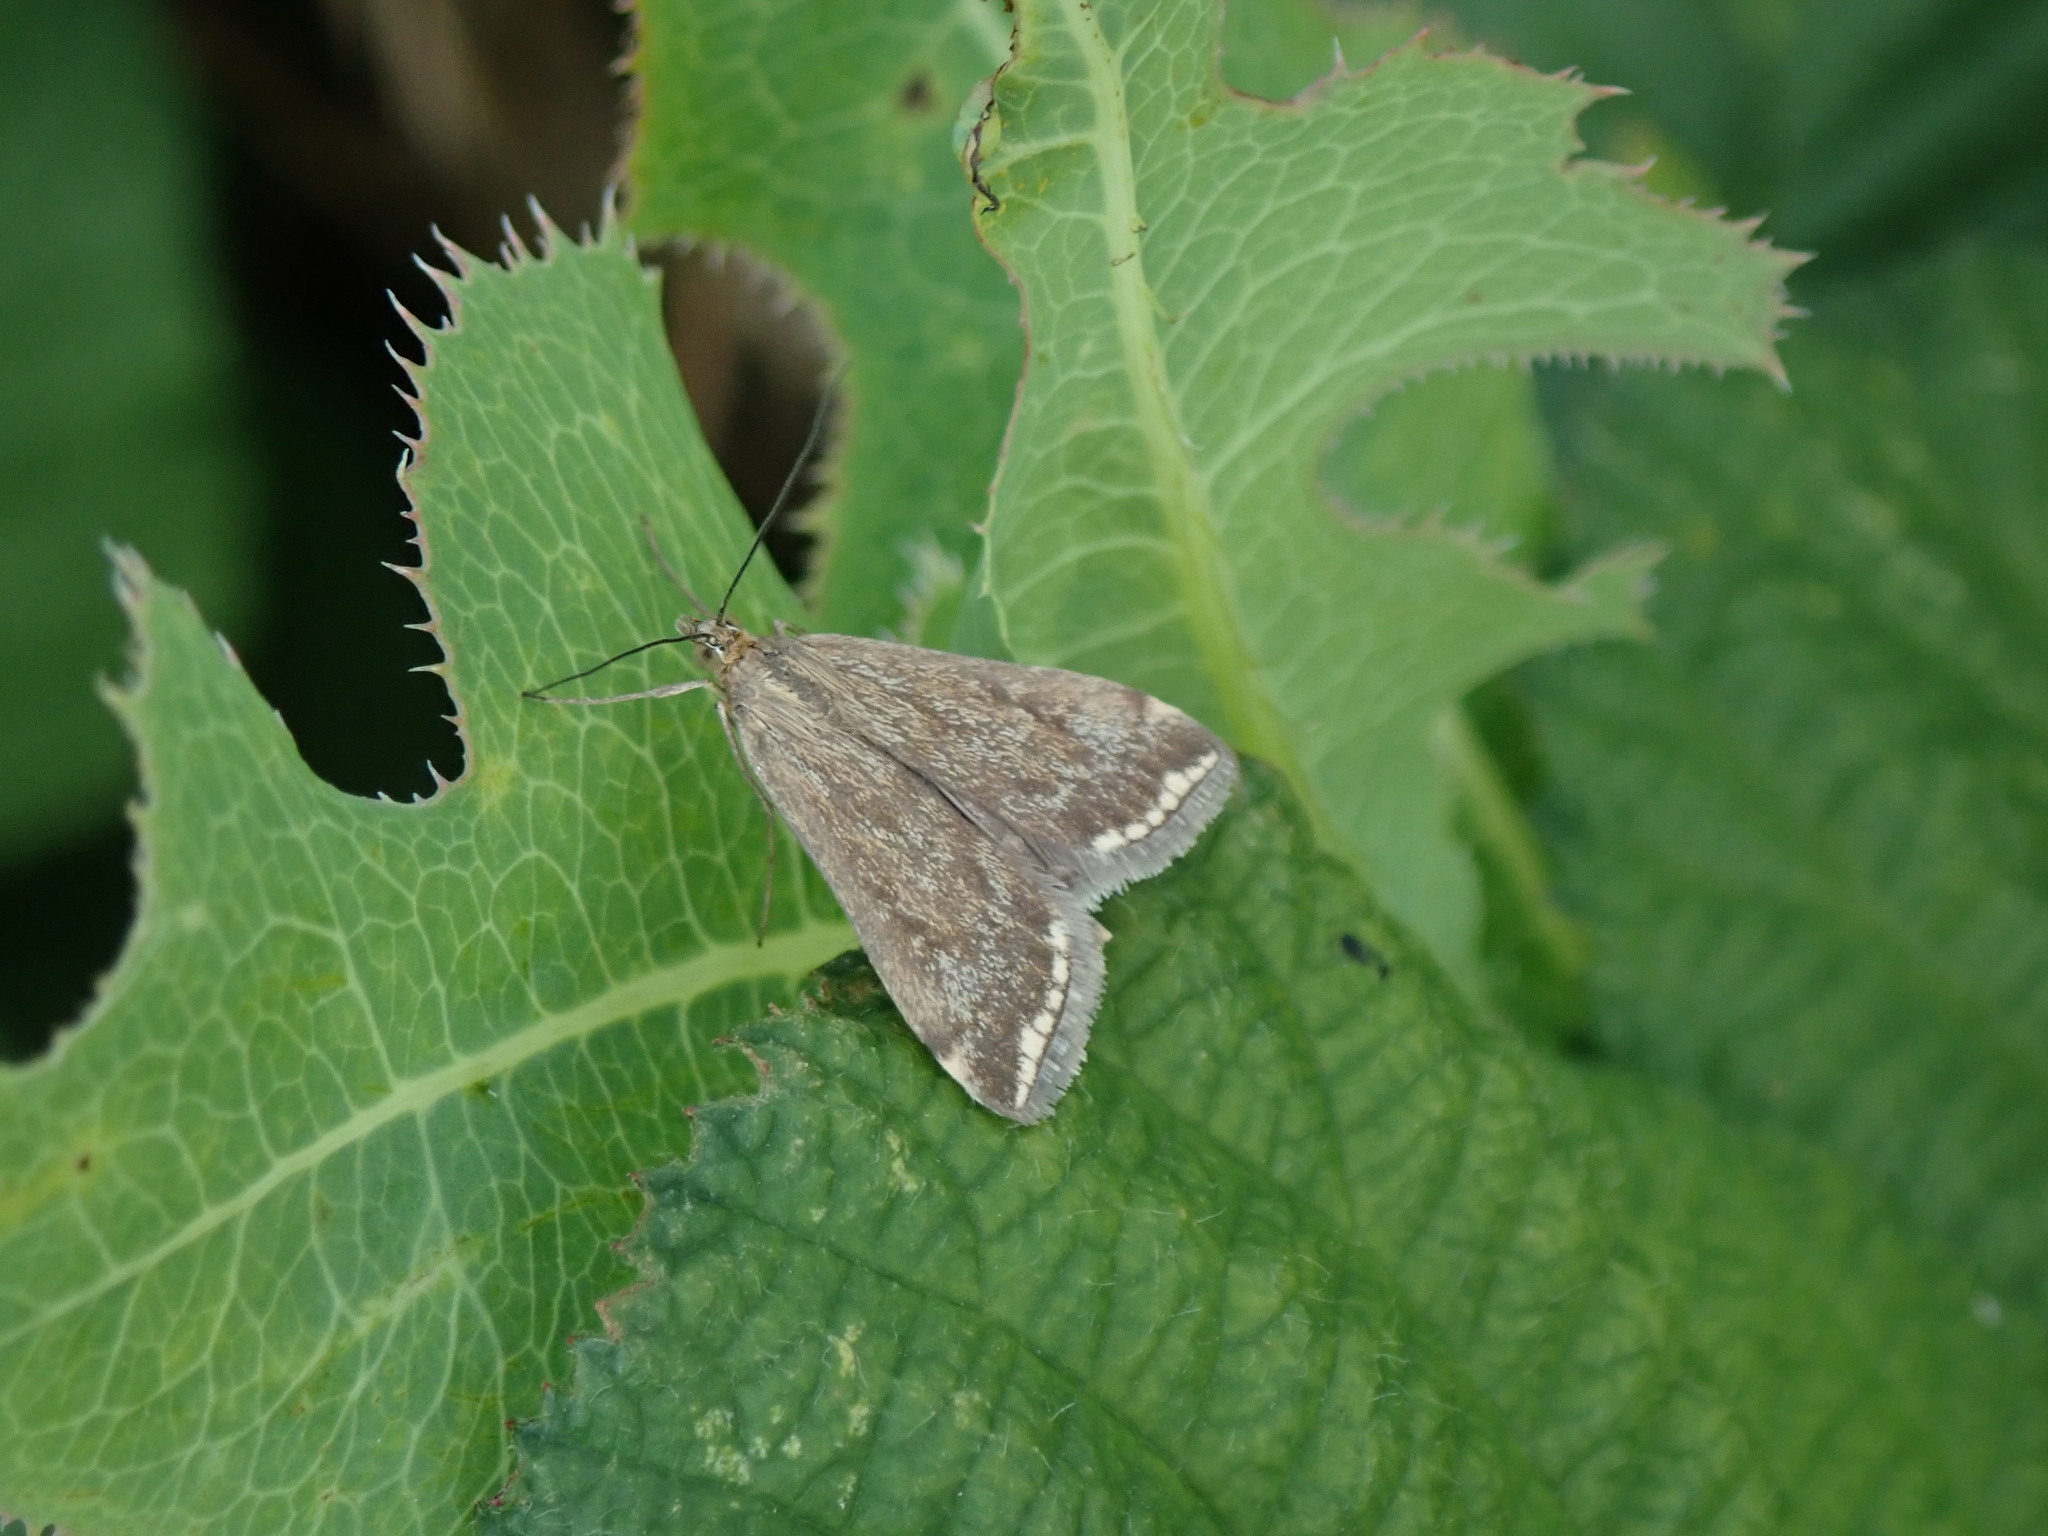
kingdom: Animalia
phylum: Arthropoda
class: Insecta
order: Lepidoptera
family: Crambidae
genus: Loxostege
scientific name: Loxostege sticticalis
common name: Crambid moth
